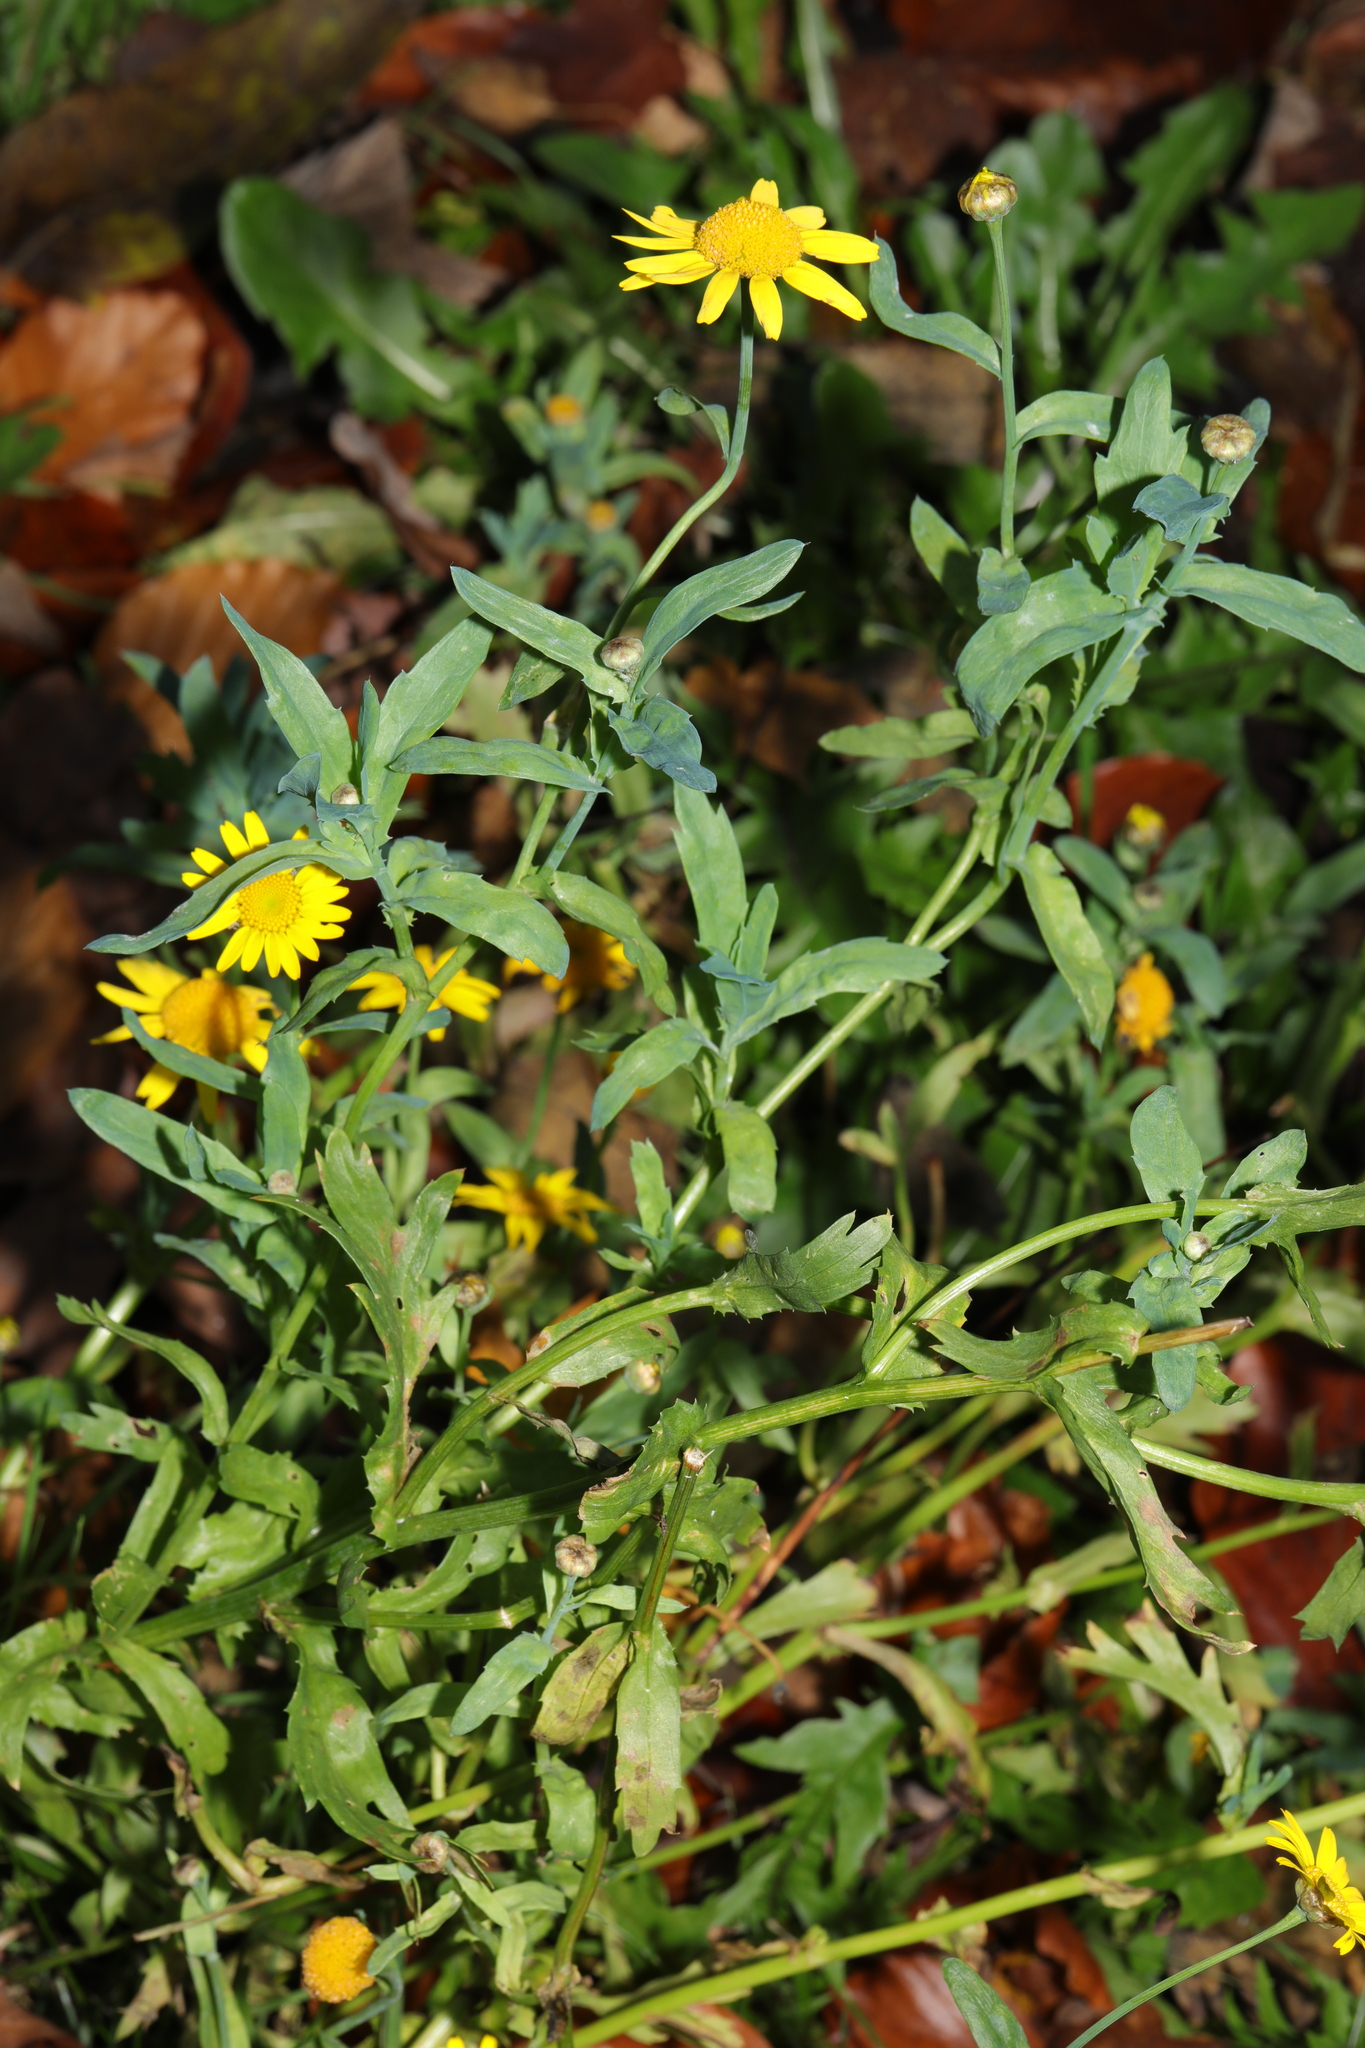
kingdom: Plantae
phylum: Tracheophyta
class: Magnoliopsida
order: Asterales
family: Asteraceae
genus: Glebionis
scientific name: Glebionis segetum
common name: Corndaisy
